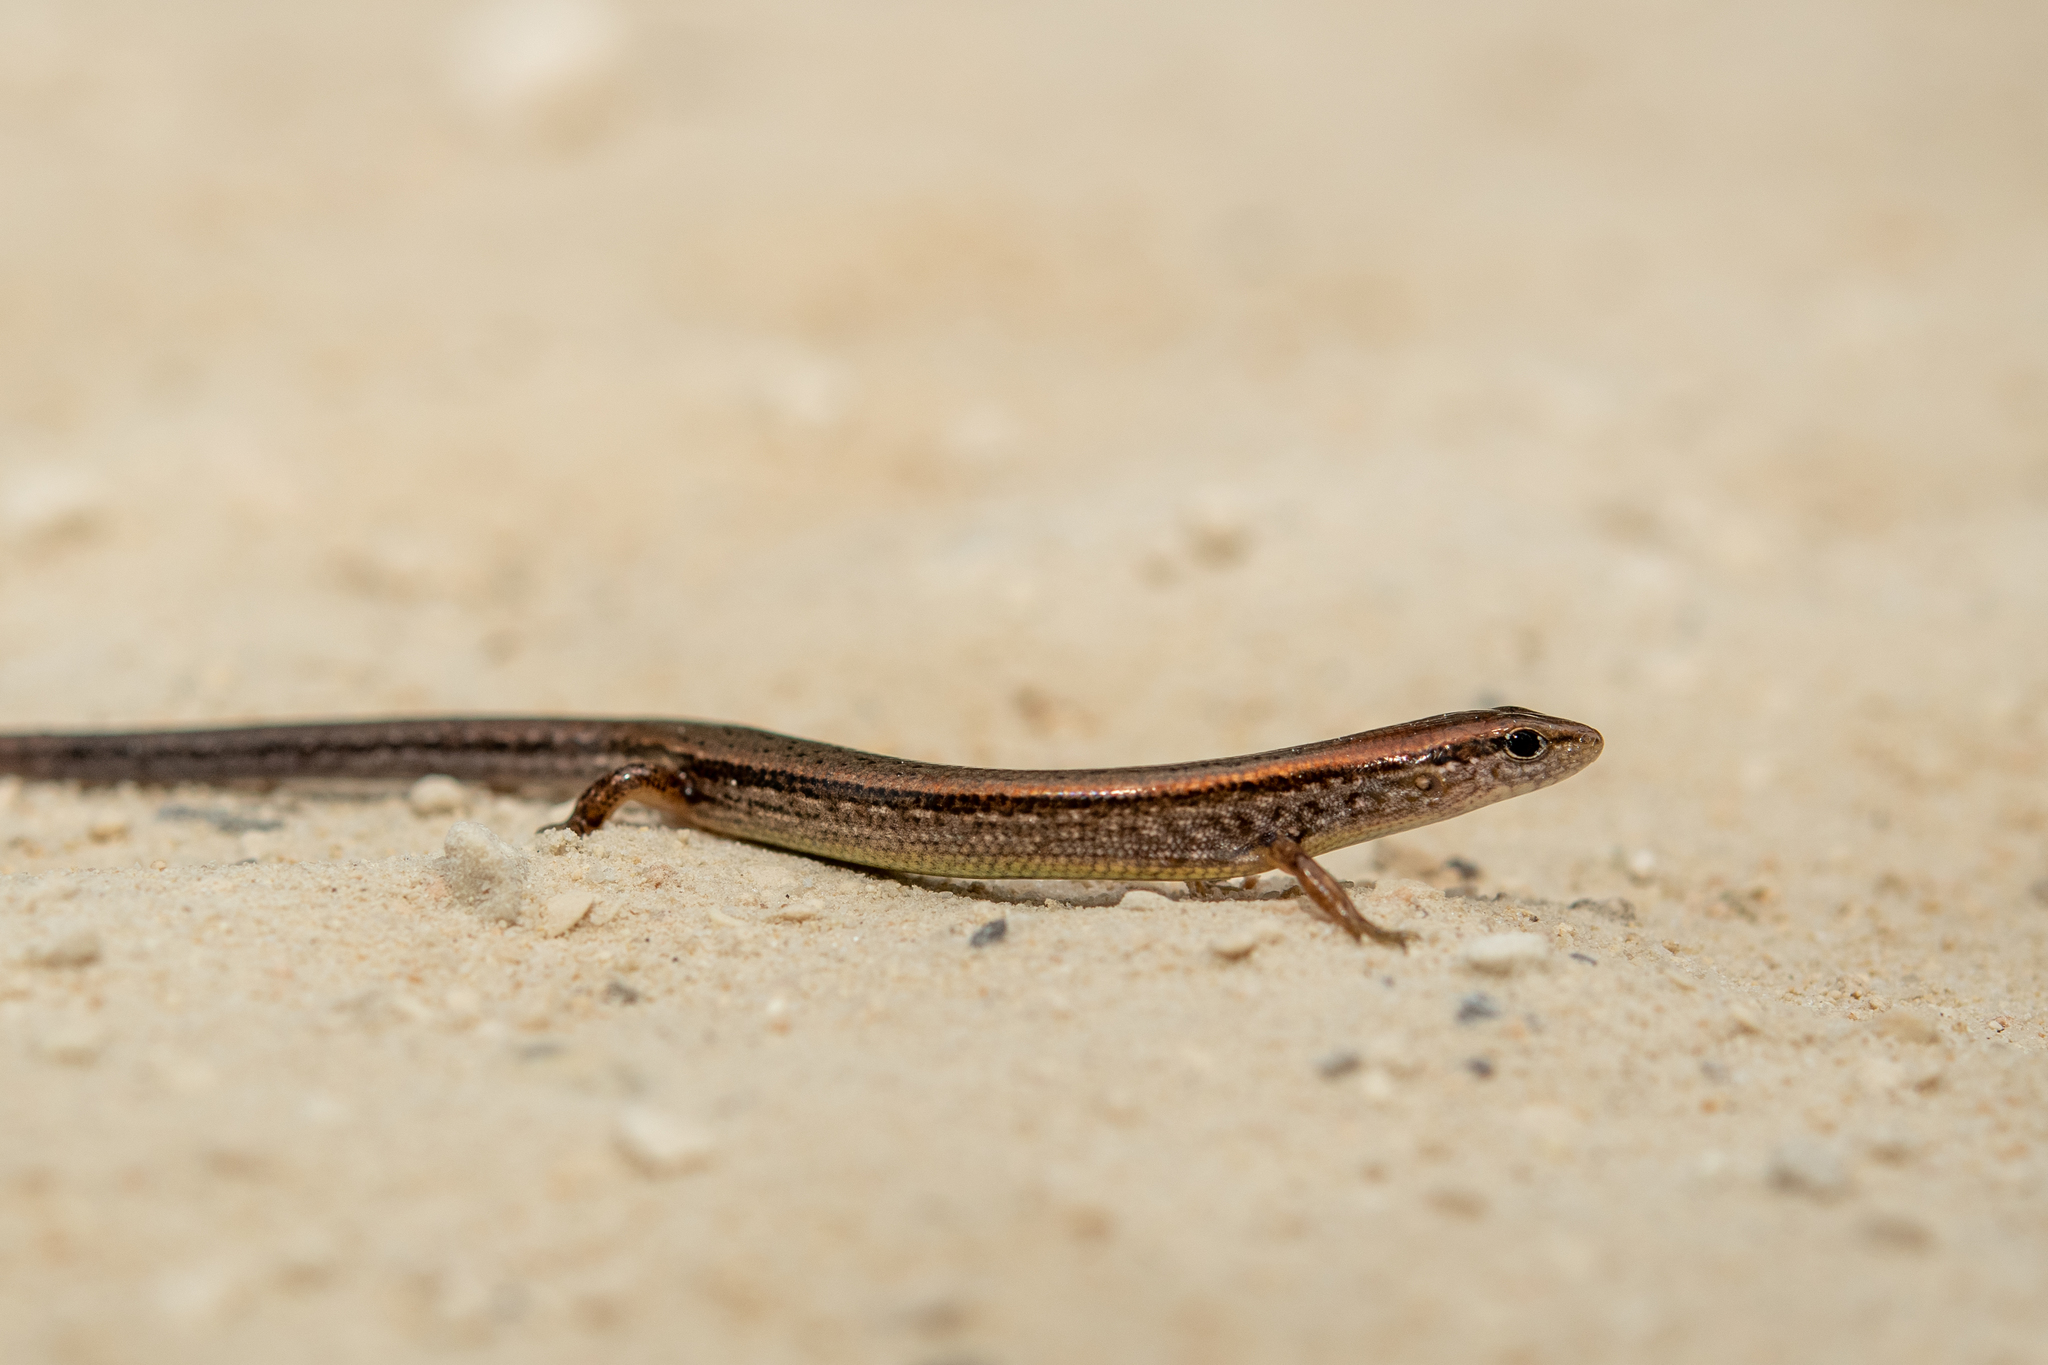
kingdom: Animalia
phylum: Chordata
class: Squamata
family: Scincidae
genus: Scincella
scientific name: Scincella lateralis
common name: Ground skink
